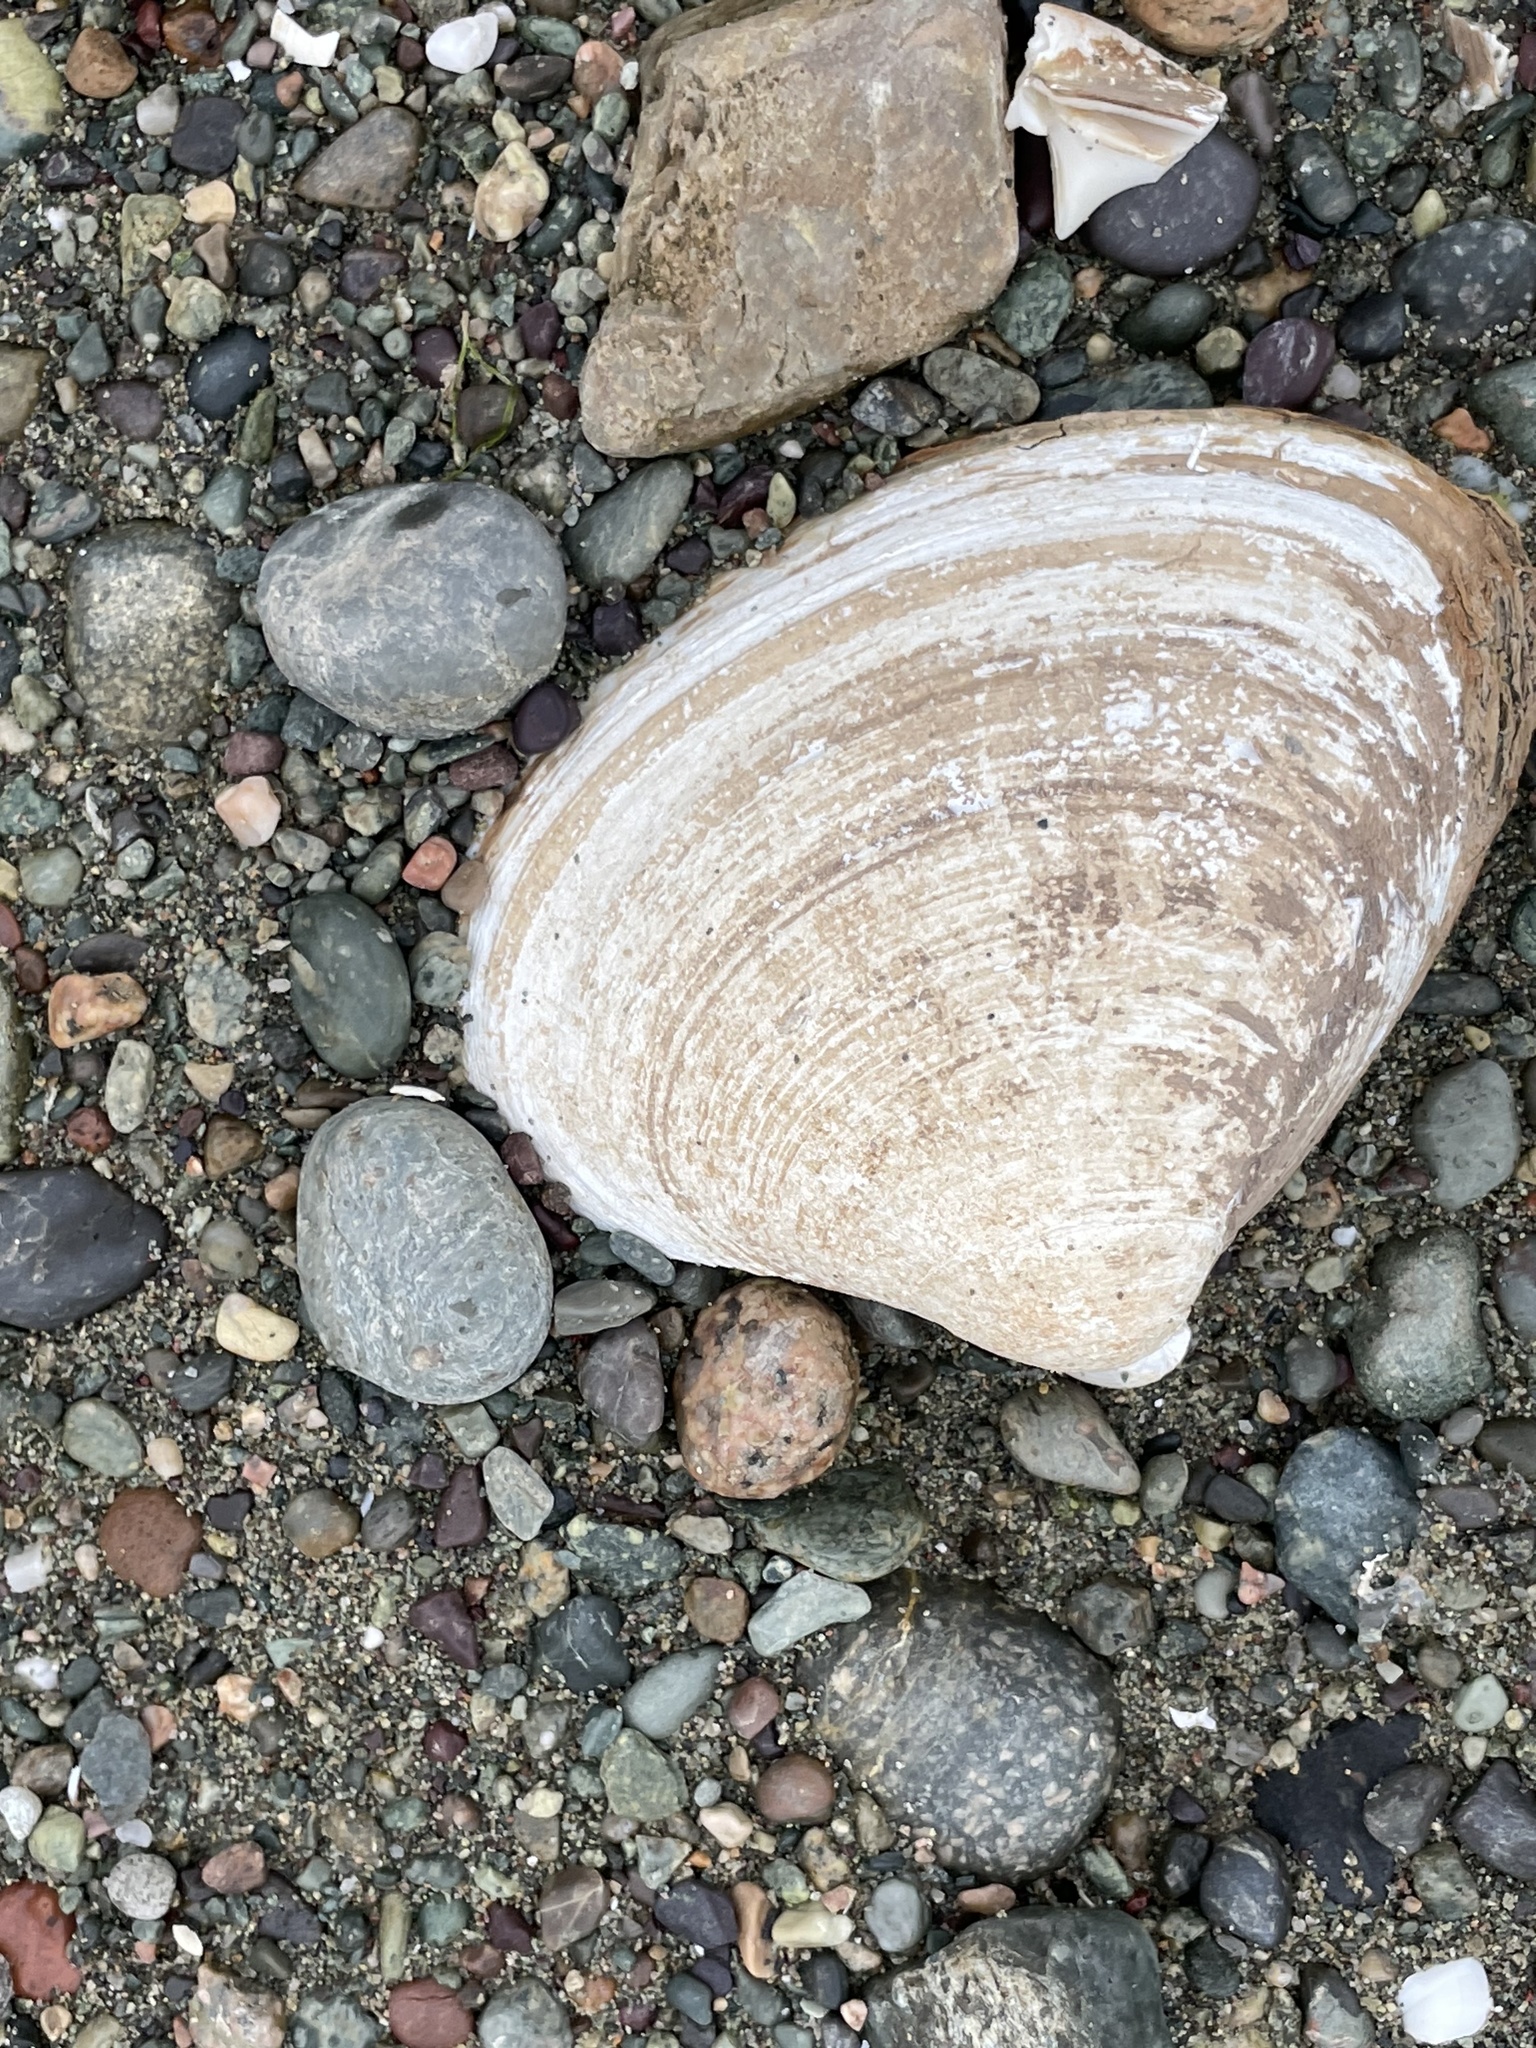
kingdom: Animalia
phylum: Mollusca
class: Bivalvia
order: Venerida
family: Mactridae
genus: Spisula
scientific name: Spisula solidissima
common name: Atlantic surf clam
